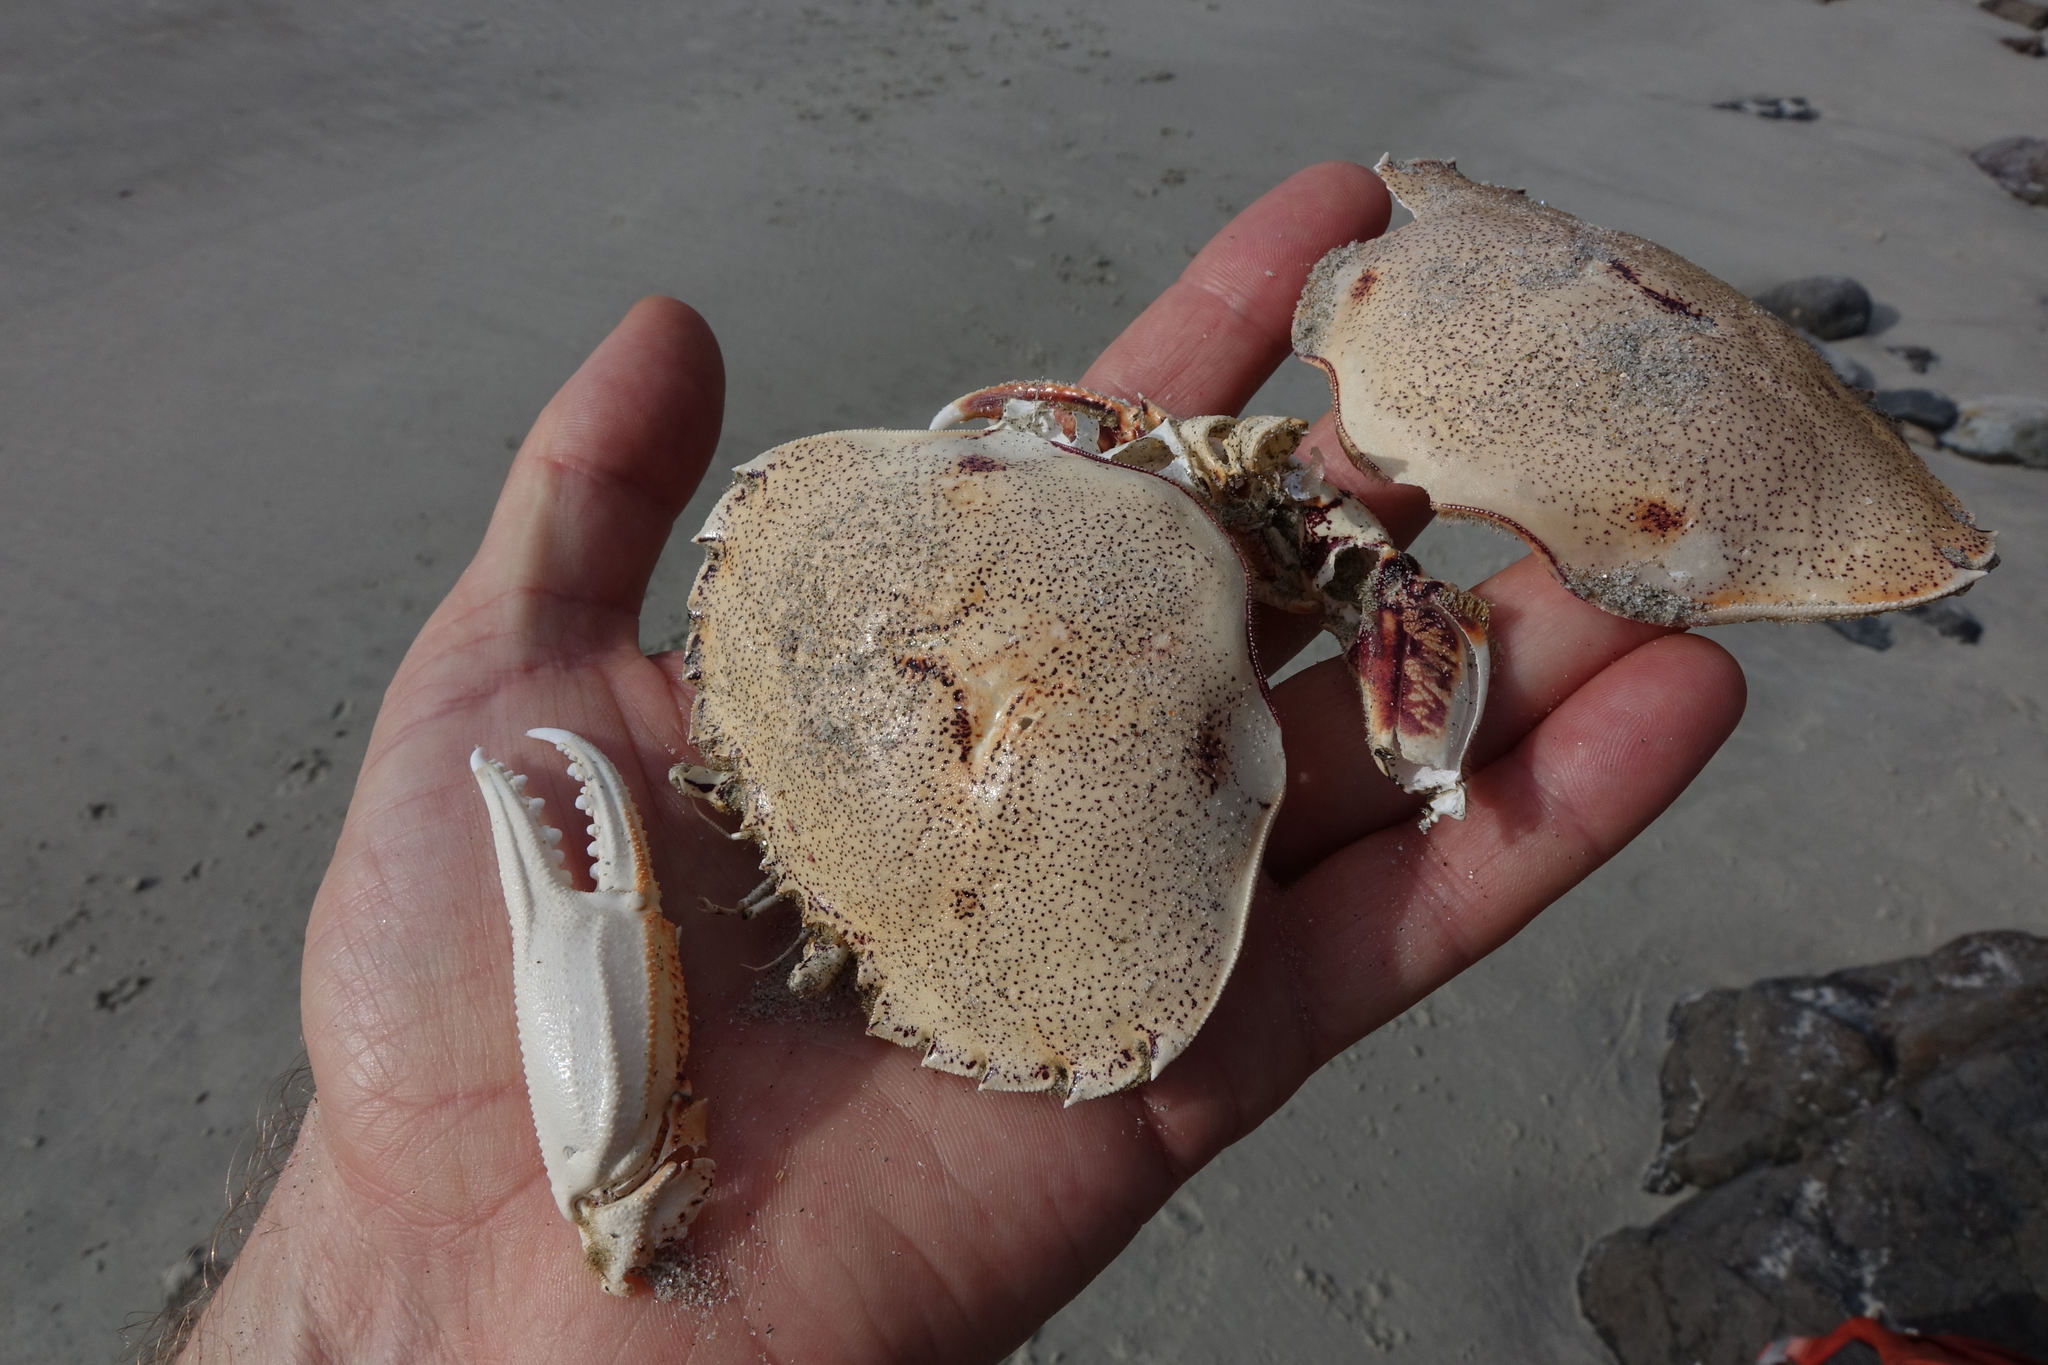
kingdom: Animalia
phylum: Arthropoda
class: Malacostraca
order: Decapoda
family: Ovalipidae
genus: Ovalipes
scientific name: Ovalipes catharus
